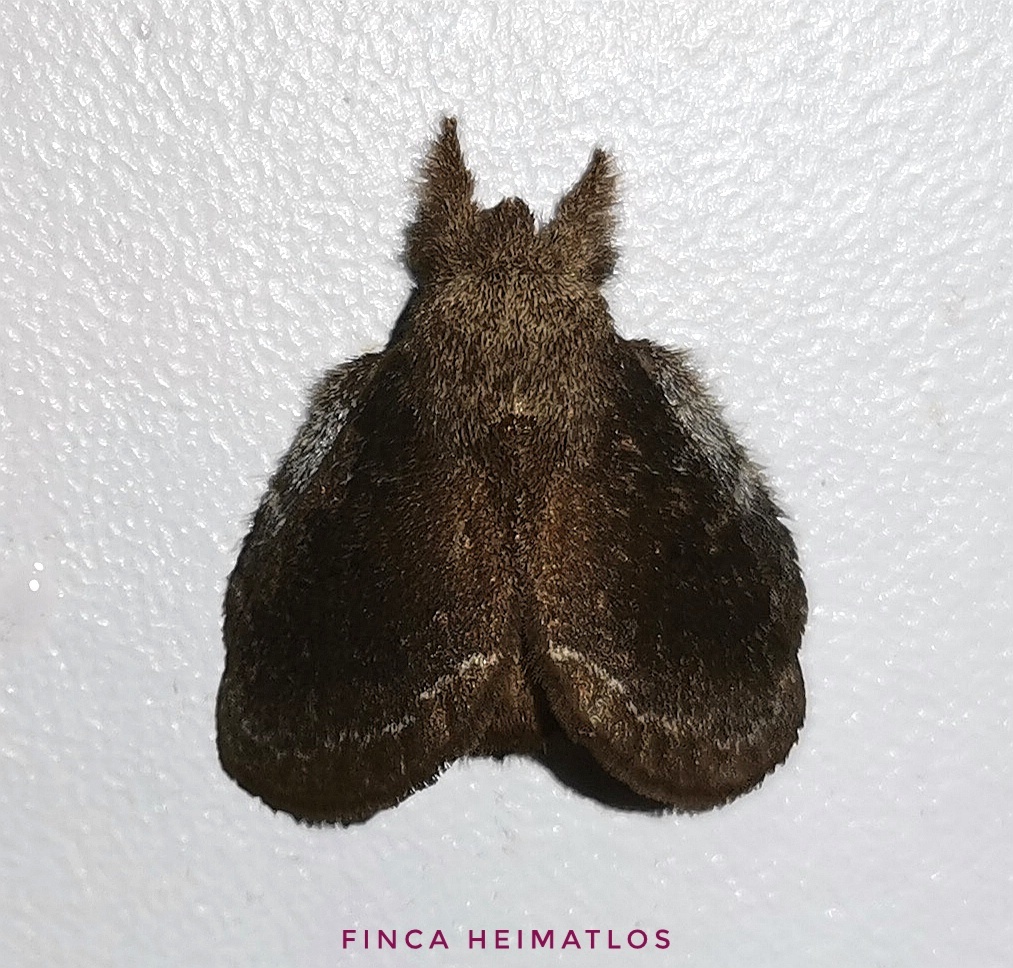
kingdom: Animalia
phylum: Arthropoda
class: Insecta
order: Lepidoptera
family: Lasiocampidae
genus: Euglyphis
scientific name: Euglyphis casimir
